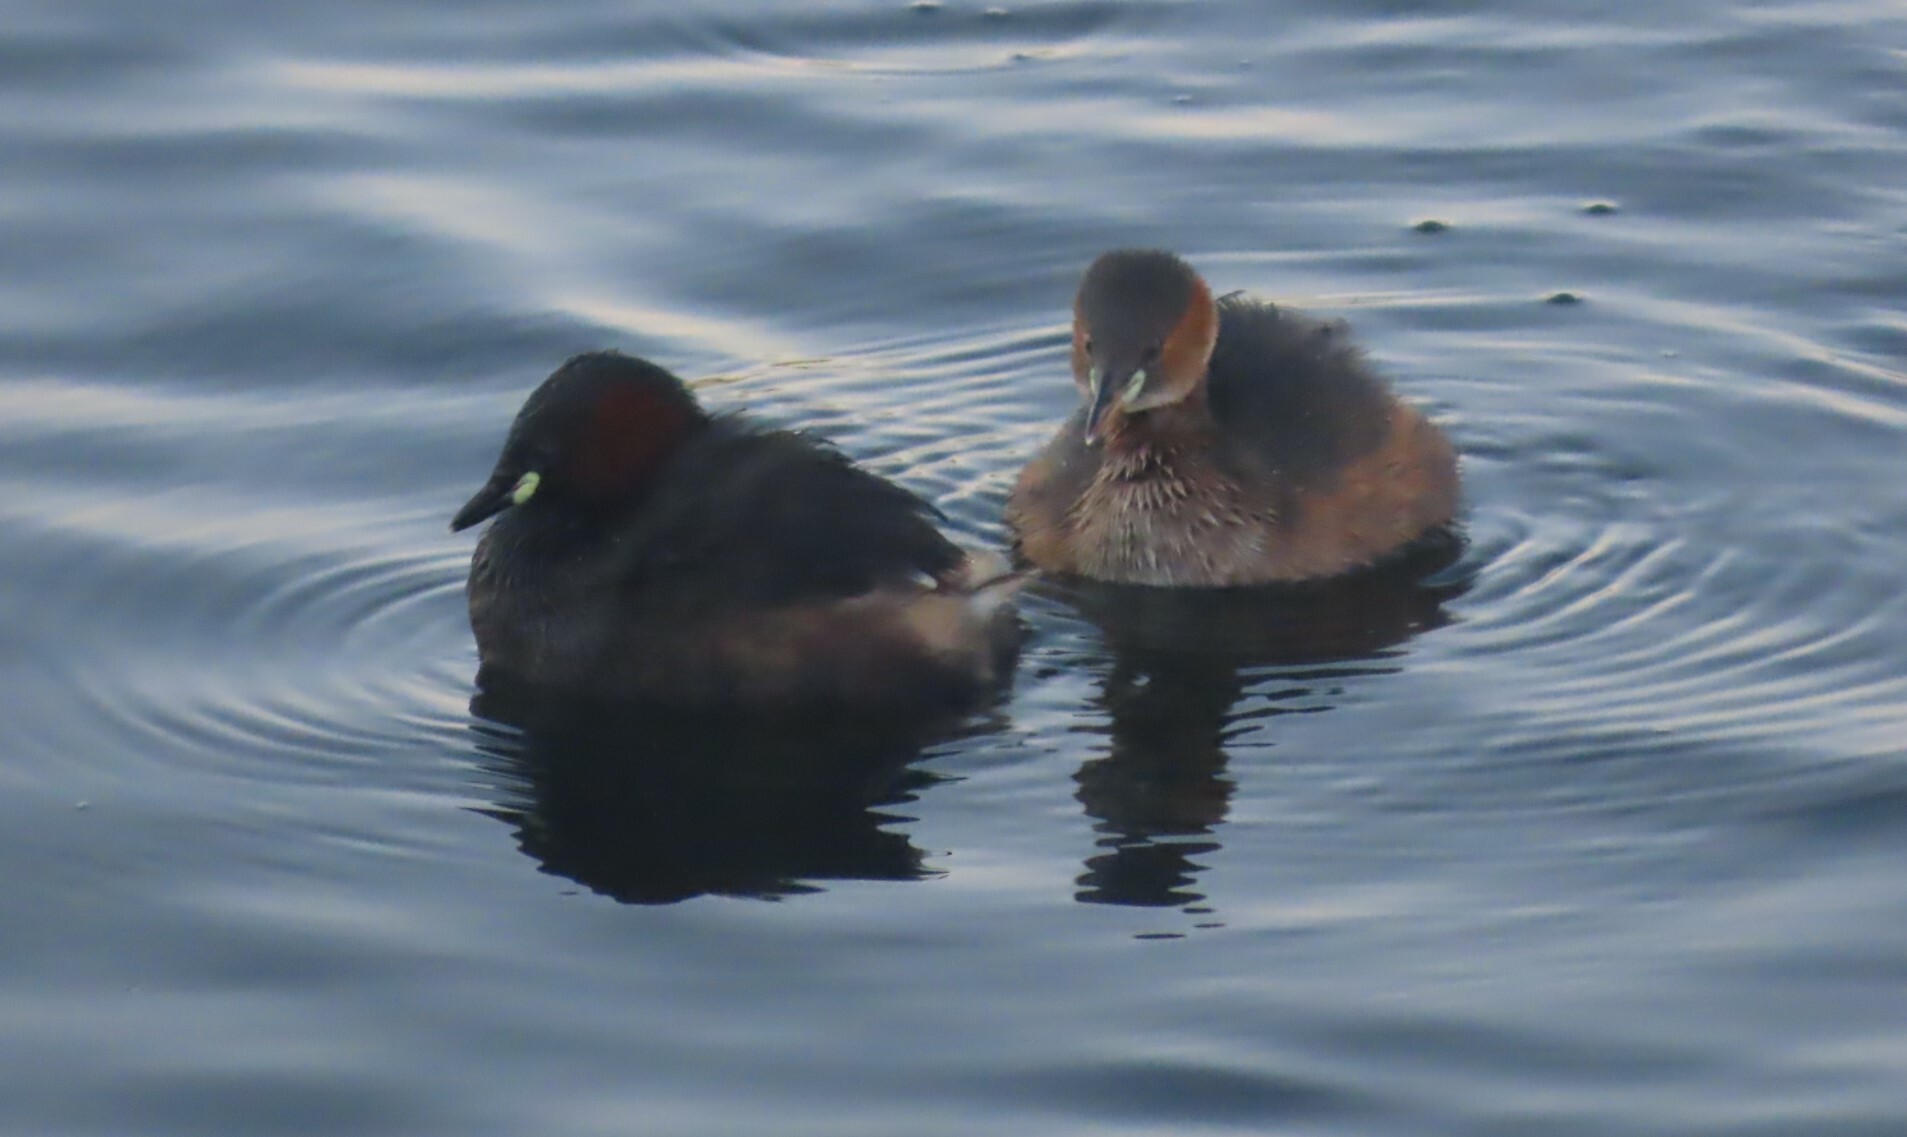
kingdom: Animalia
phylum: Chordata
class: Aves
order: Podicipediformes
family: Podicipedidae
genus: Tachybaptus
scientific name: Tachybaptus ruficollis
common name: Little grebe
